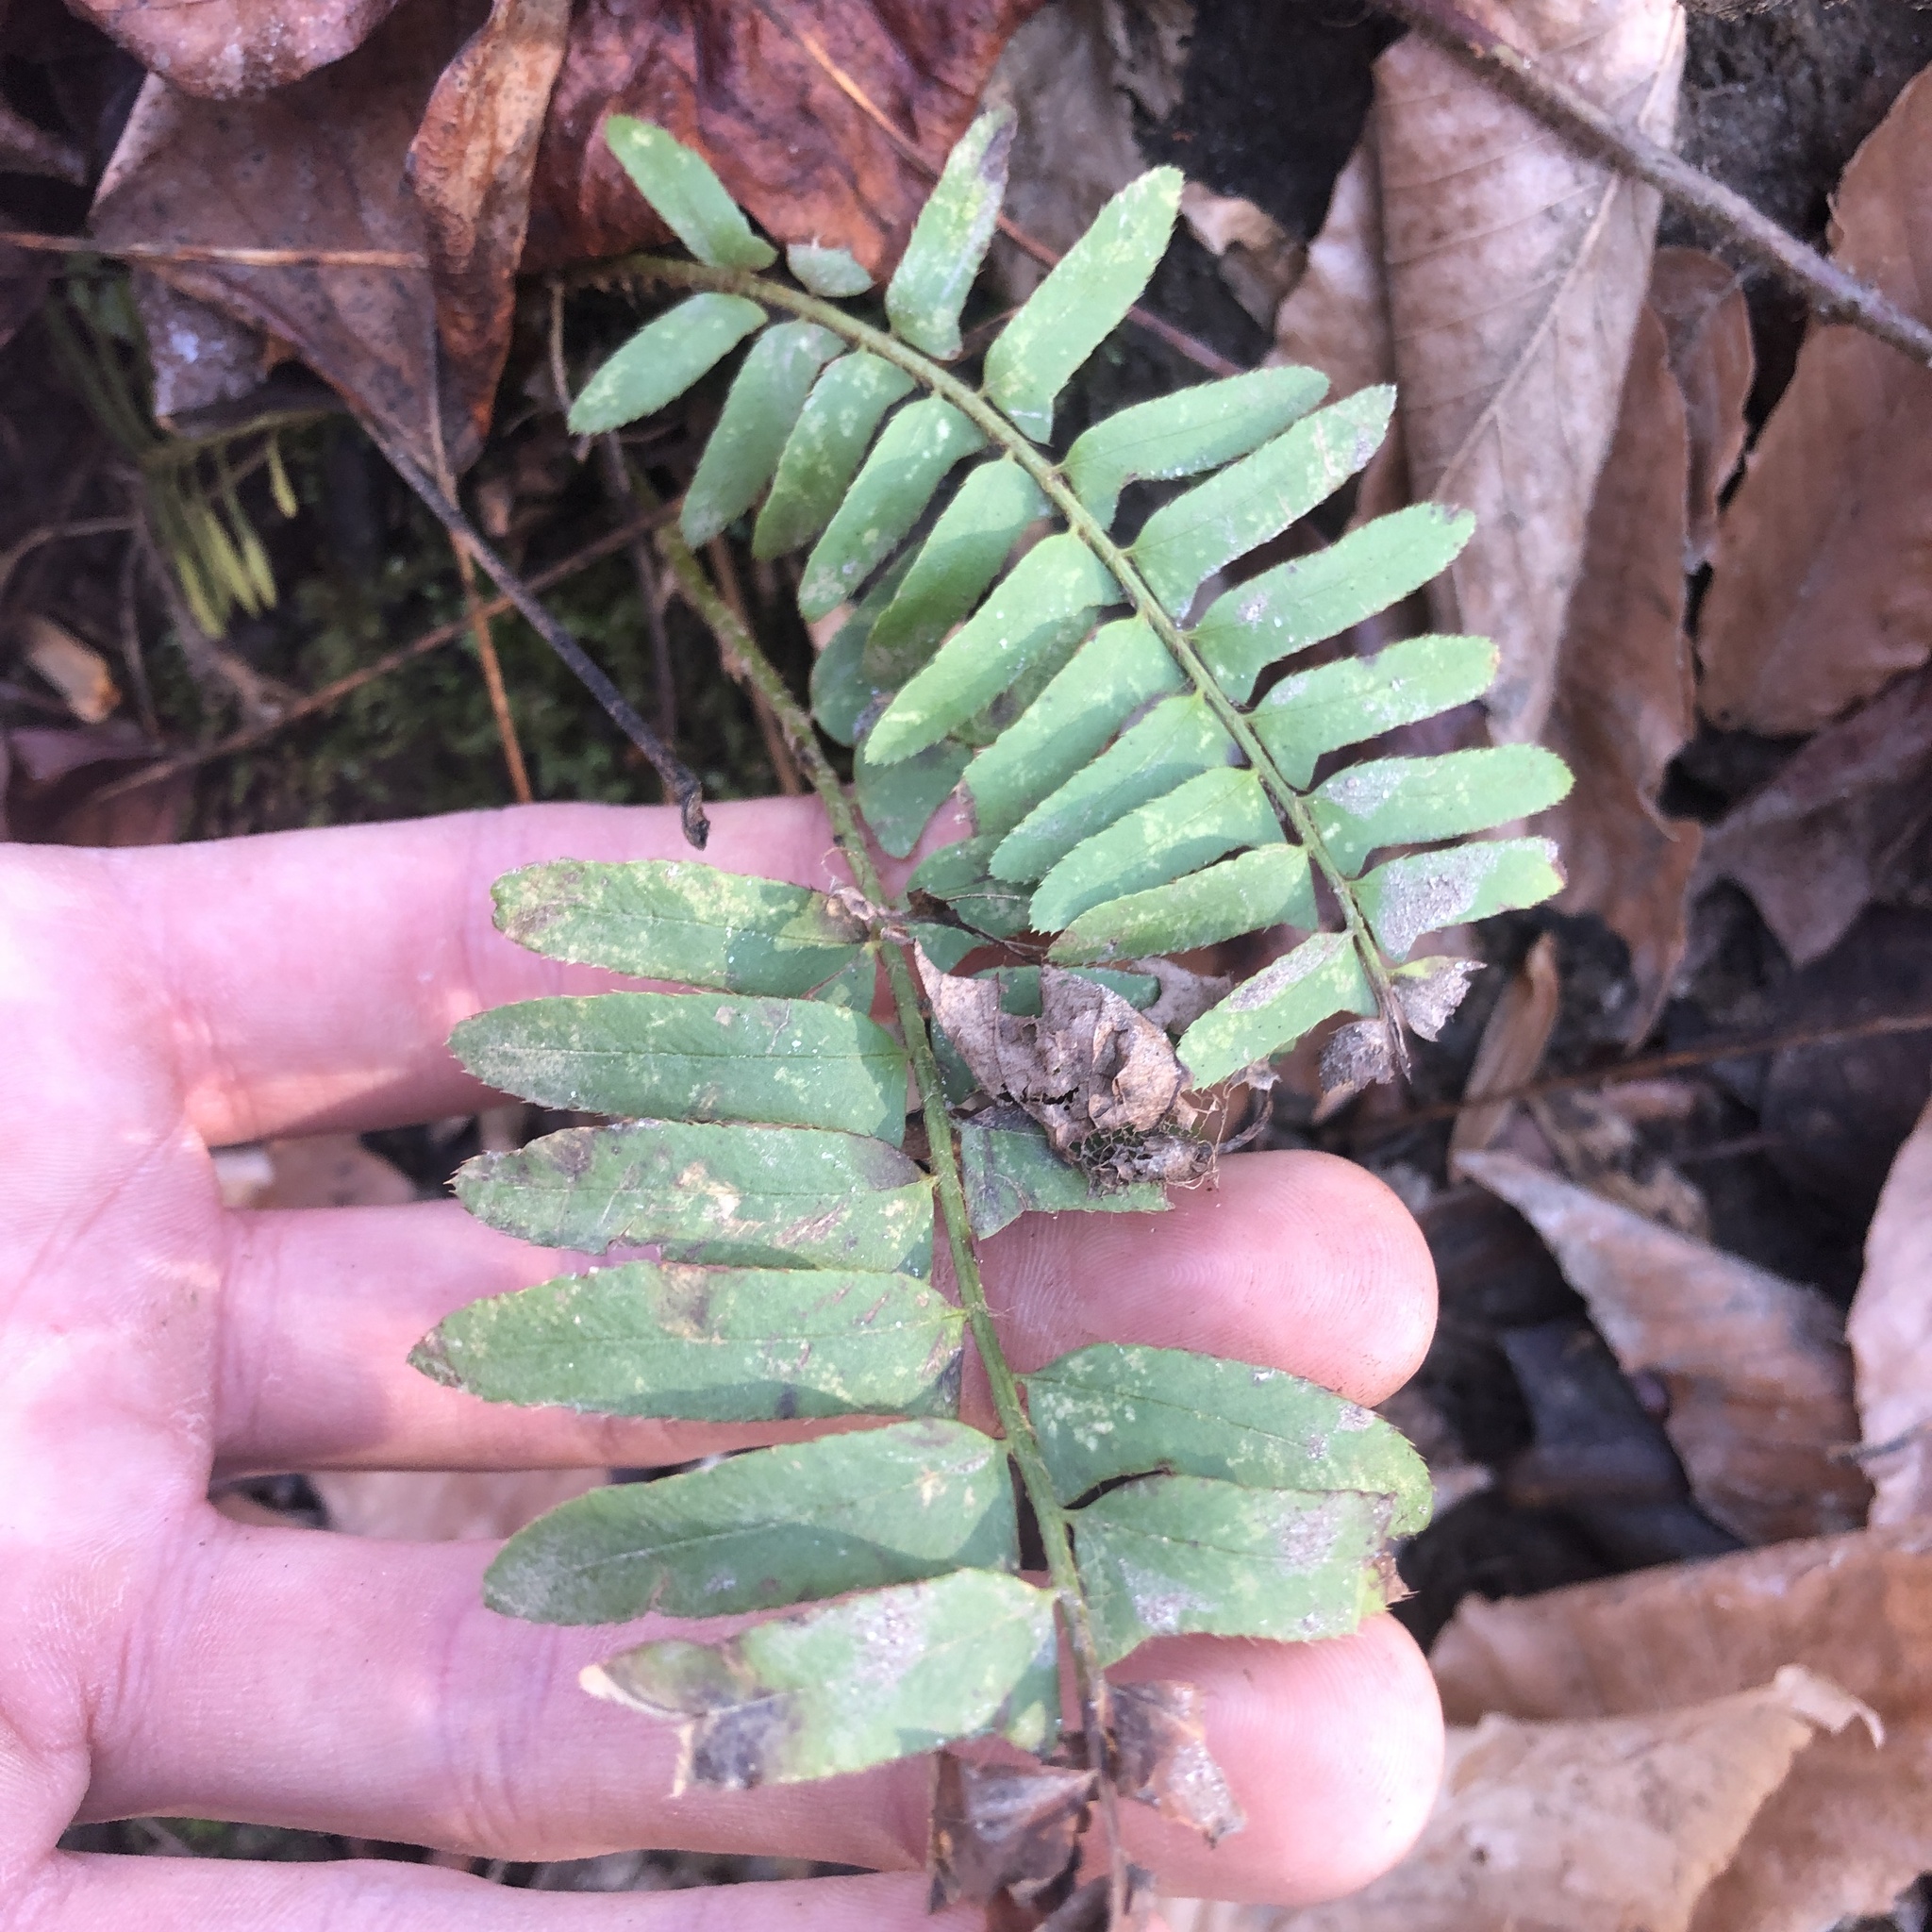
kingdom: Plantae
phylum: Tracheophyta
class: Polypodiopsida
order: Polypodiales
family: Dryopteridaceae
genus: Polystichum
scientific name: Polystichum acrostichoides
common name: Christmas fern
